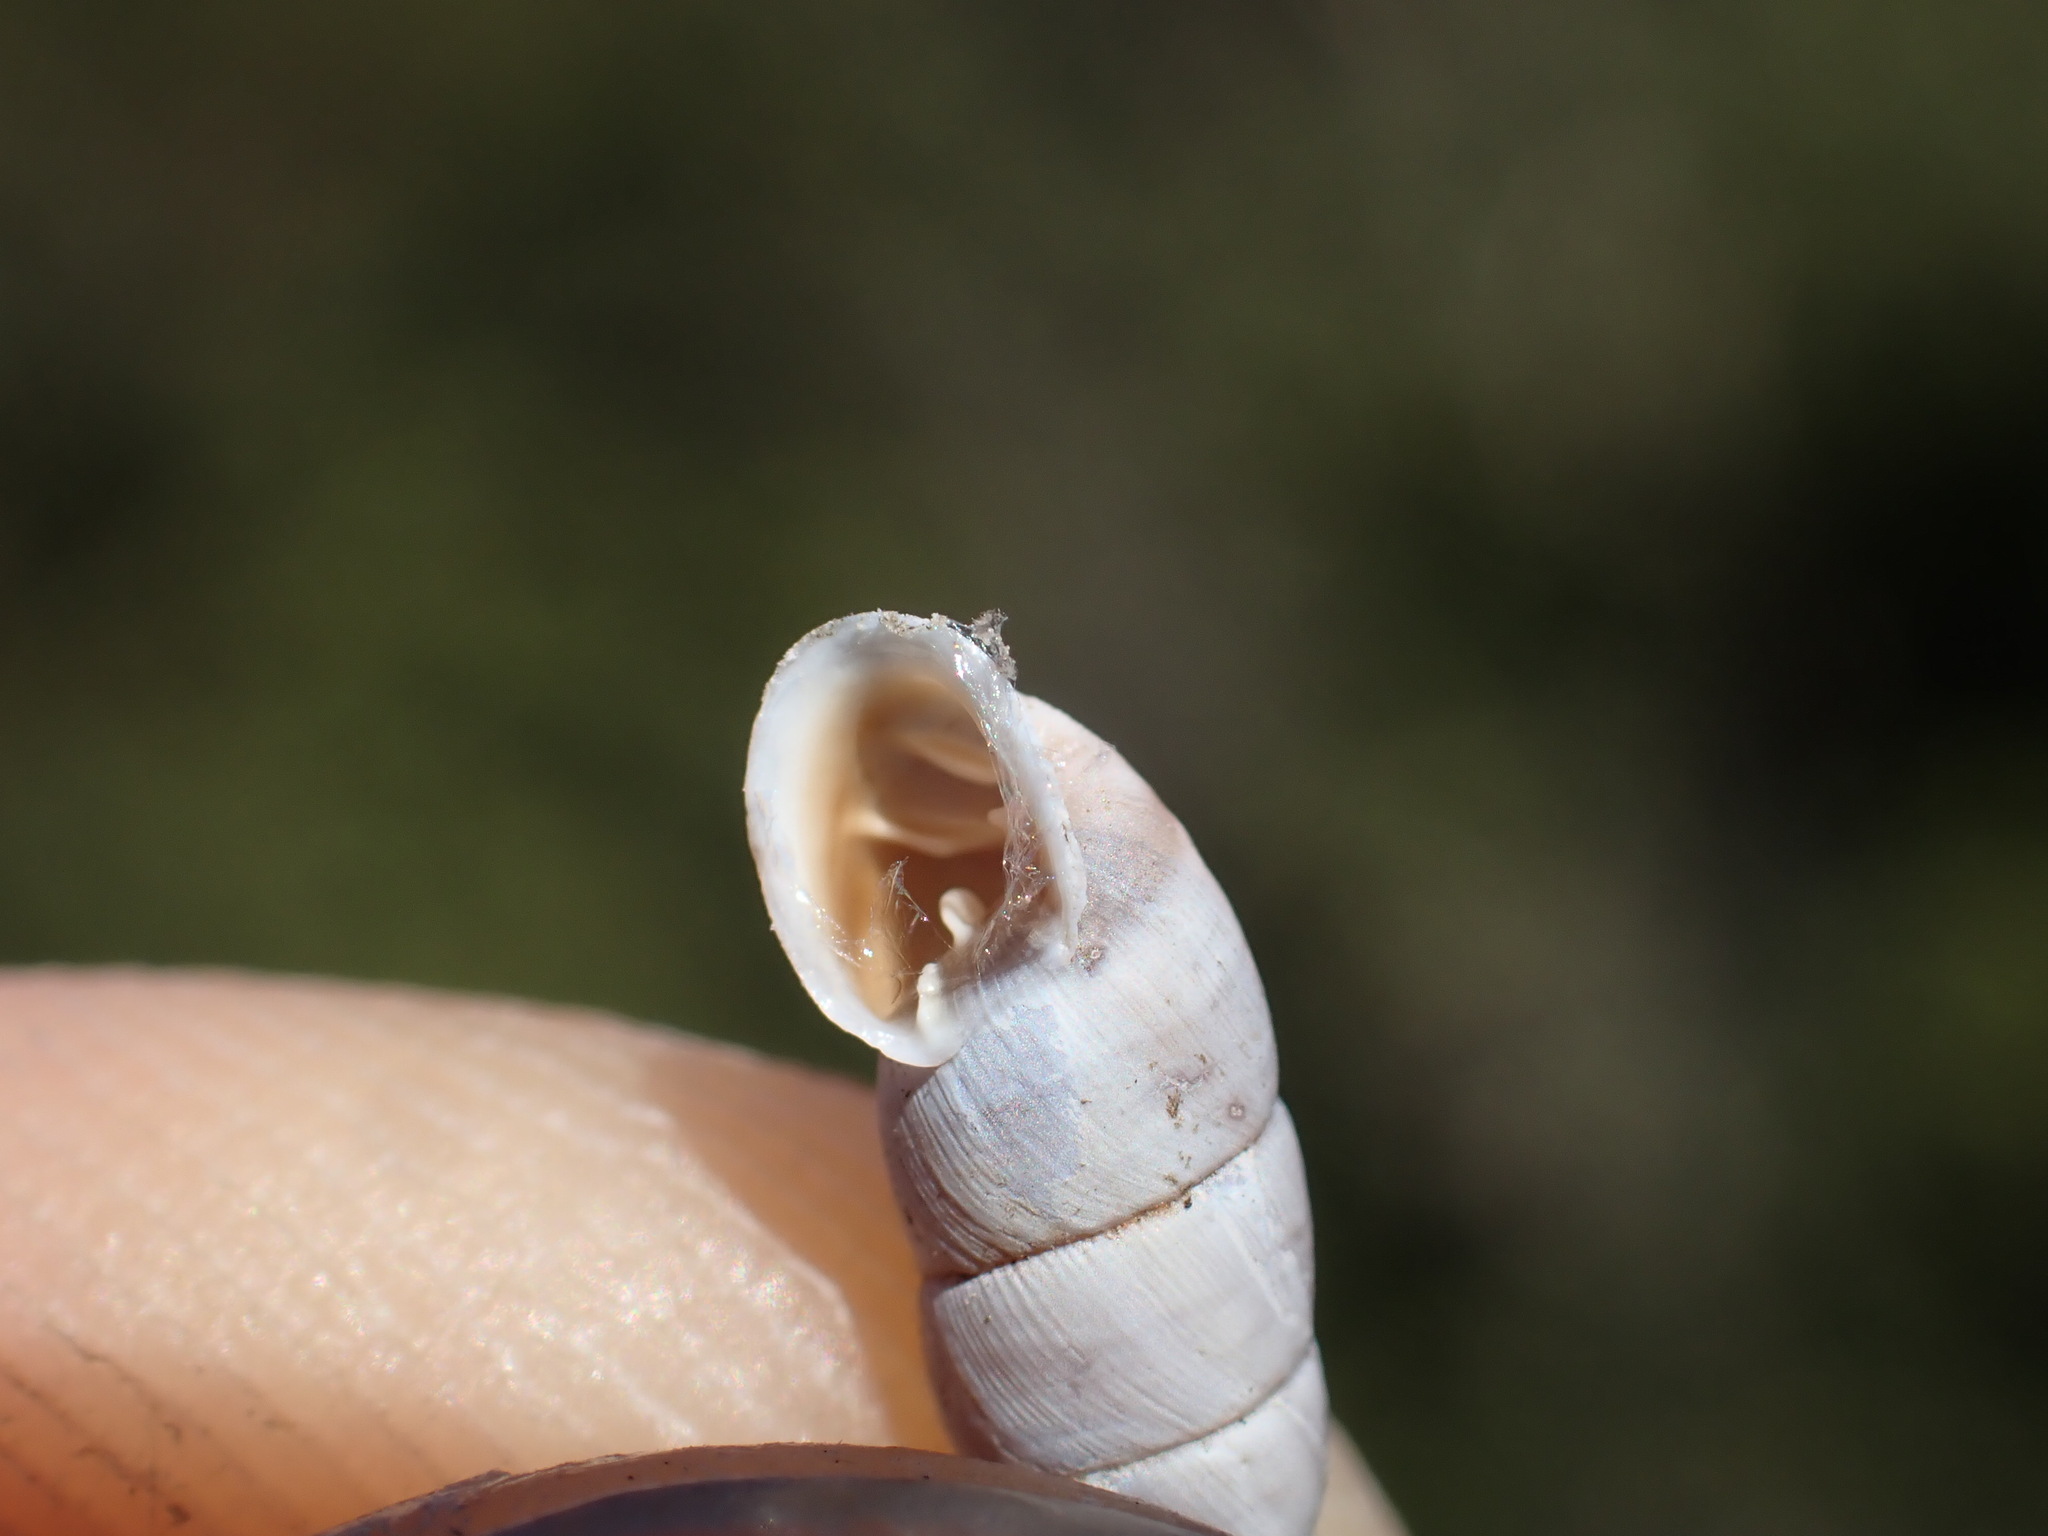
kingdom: Animalia
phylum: Mollusca
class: Gastropoda
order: Stylommatophora
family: Chondrinidae
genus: Solatopupa
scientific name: Solatopupa similis
